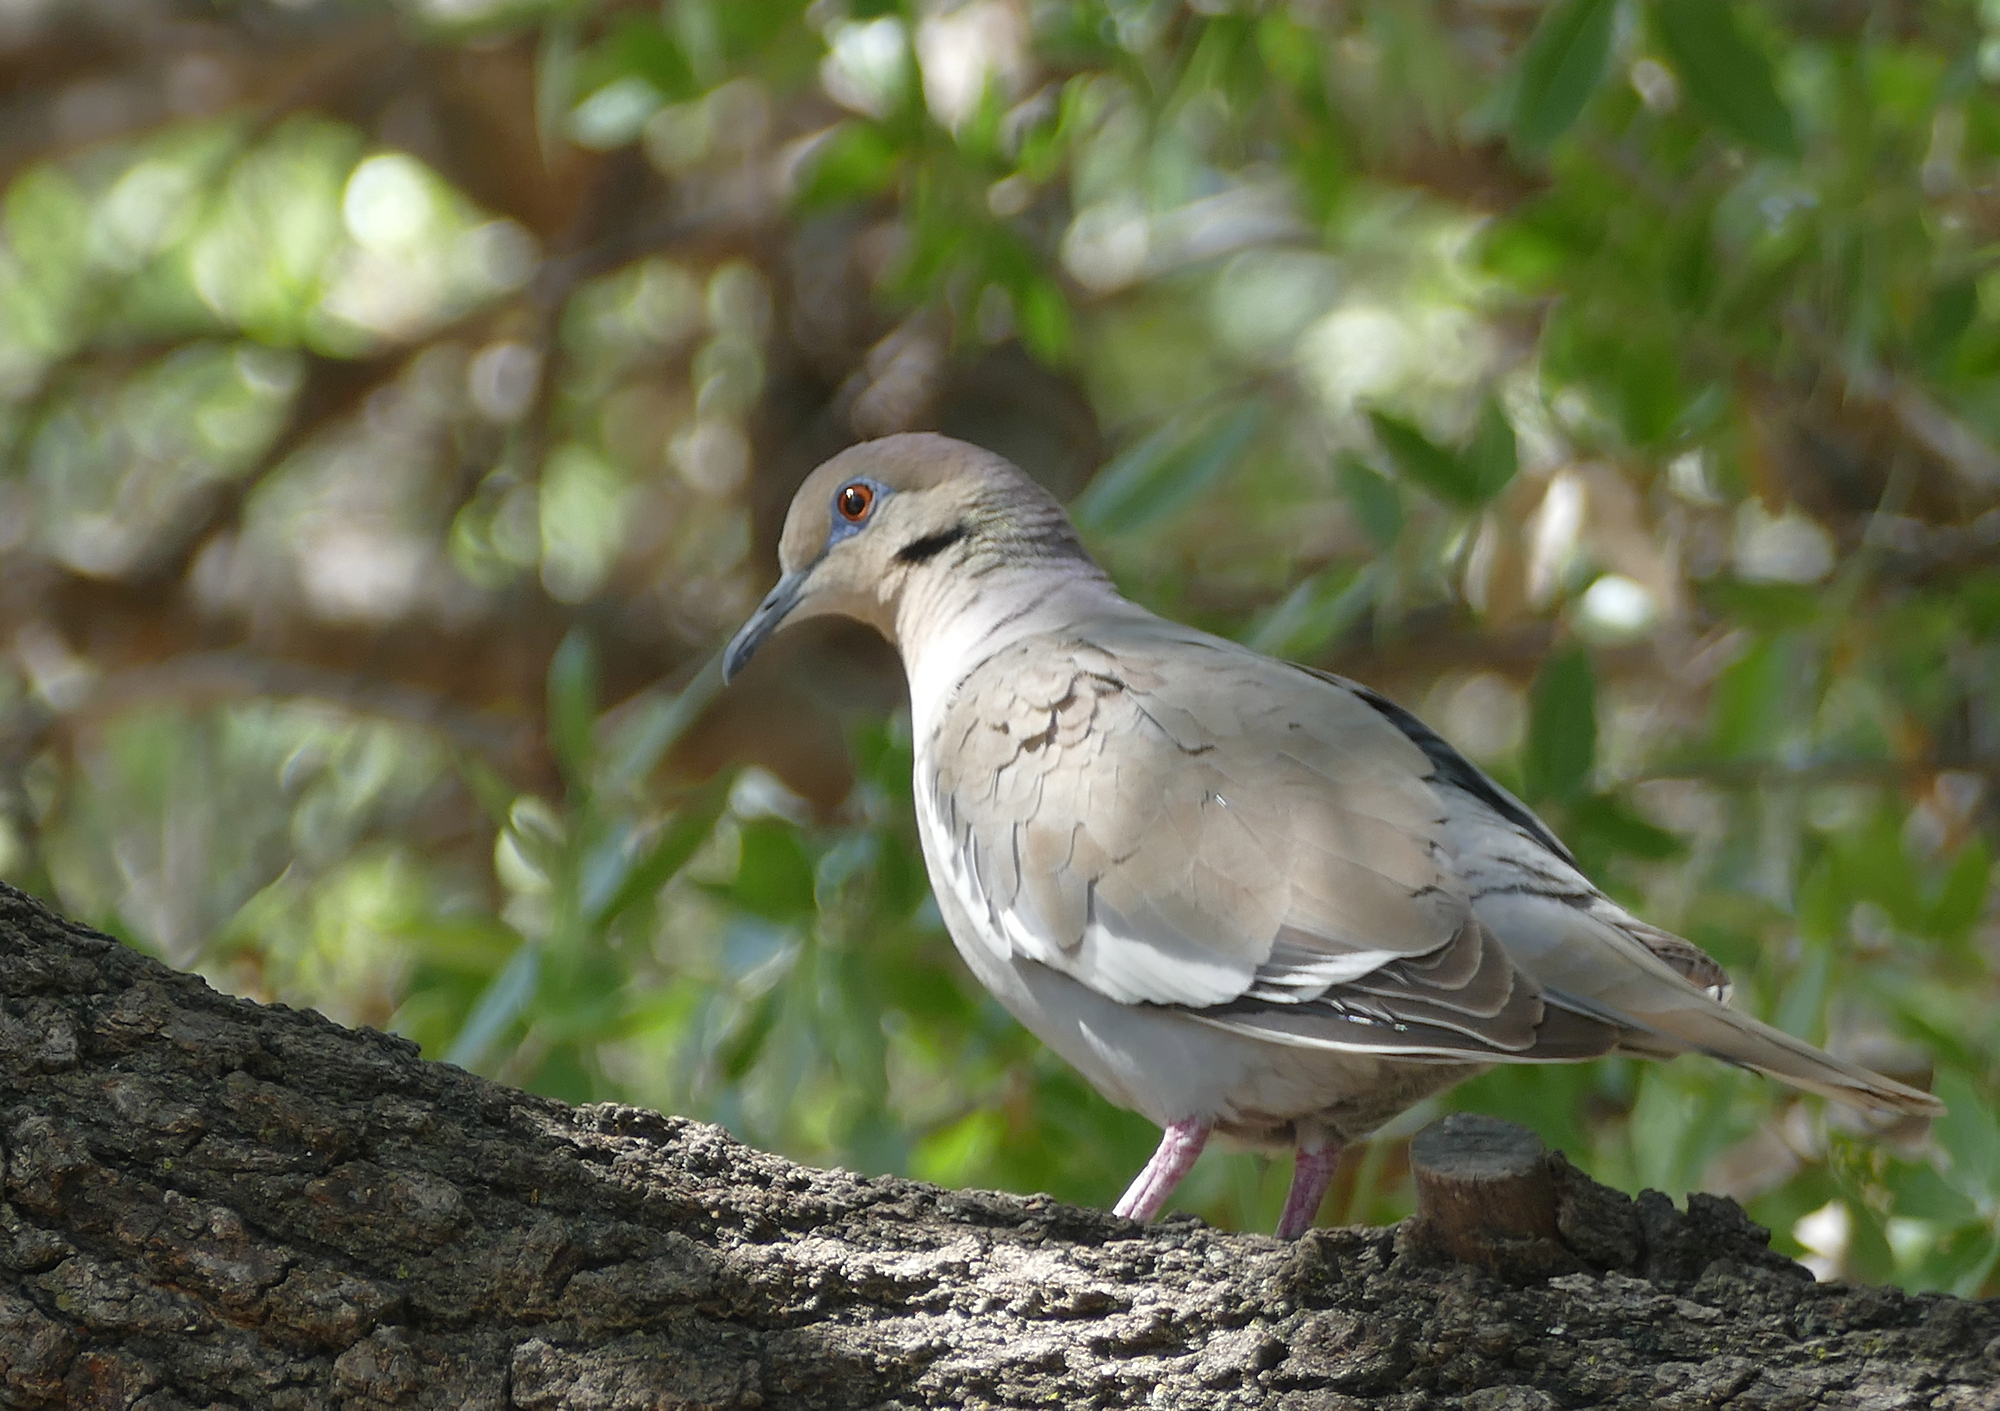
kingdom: Animalia
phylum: Chordata
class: Aves
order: Columbiformes
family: Columbidae
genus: Zenaida
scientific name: Zenaida asiatica
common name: White-winged dove
